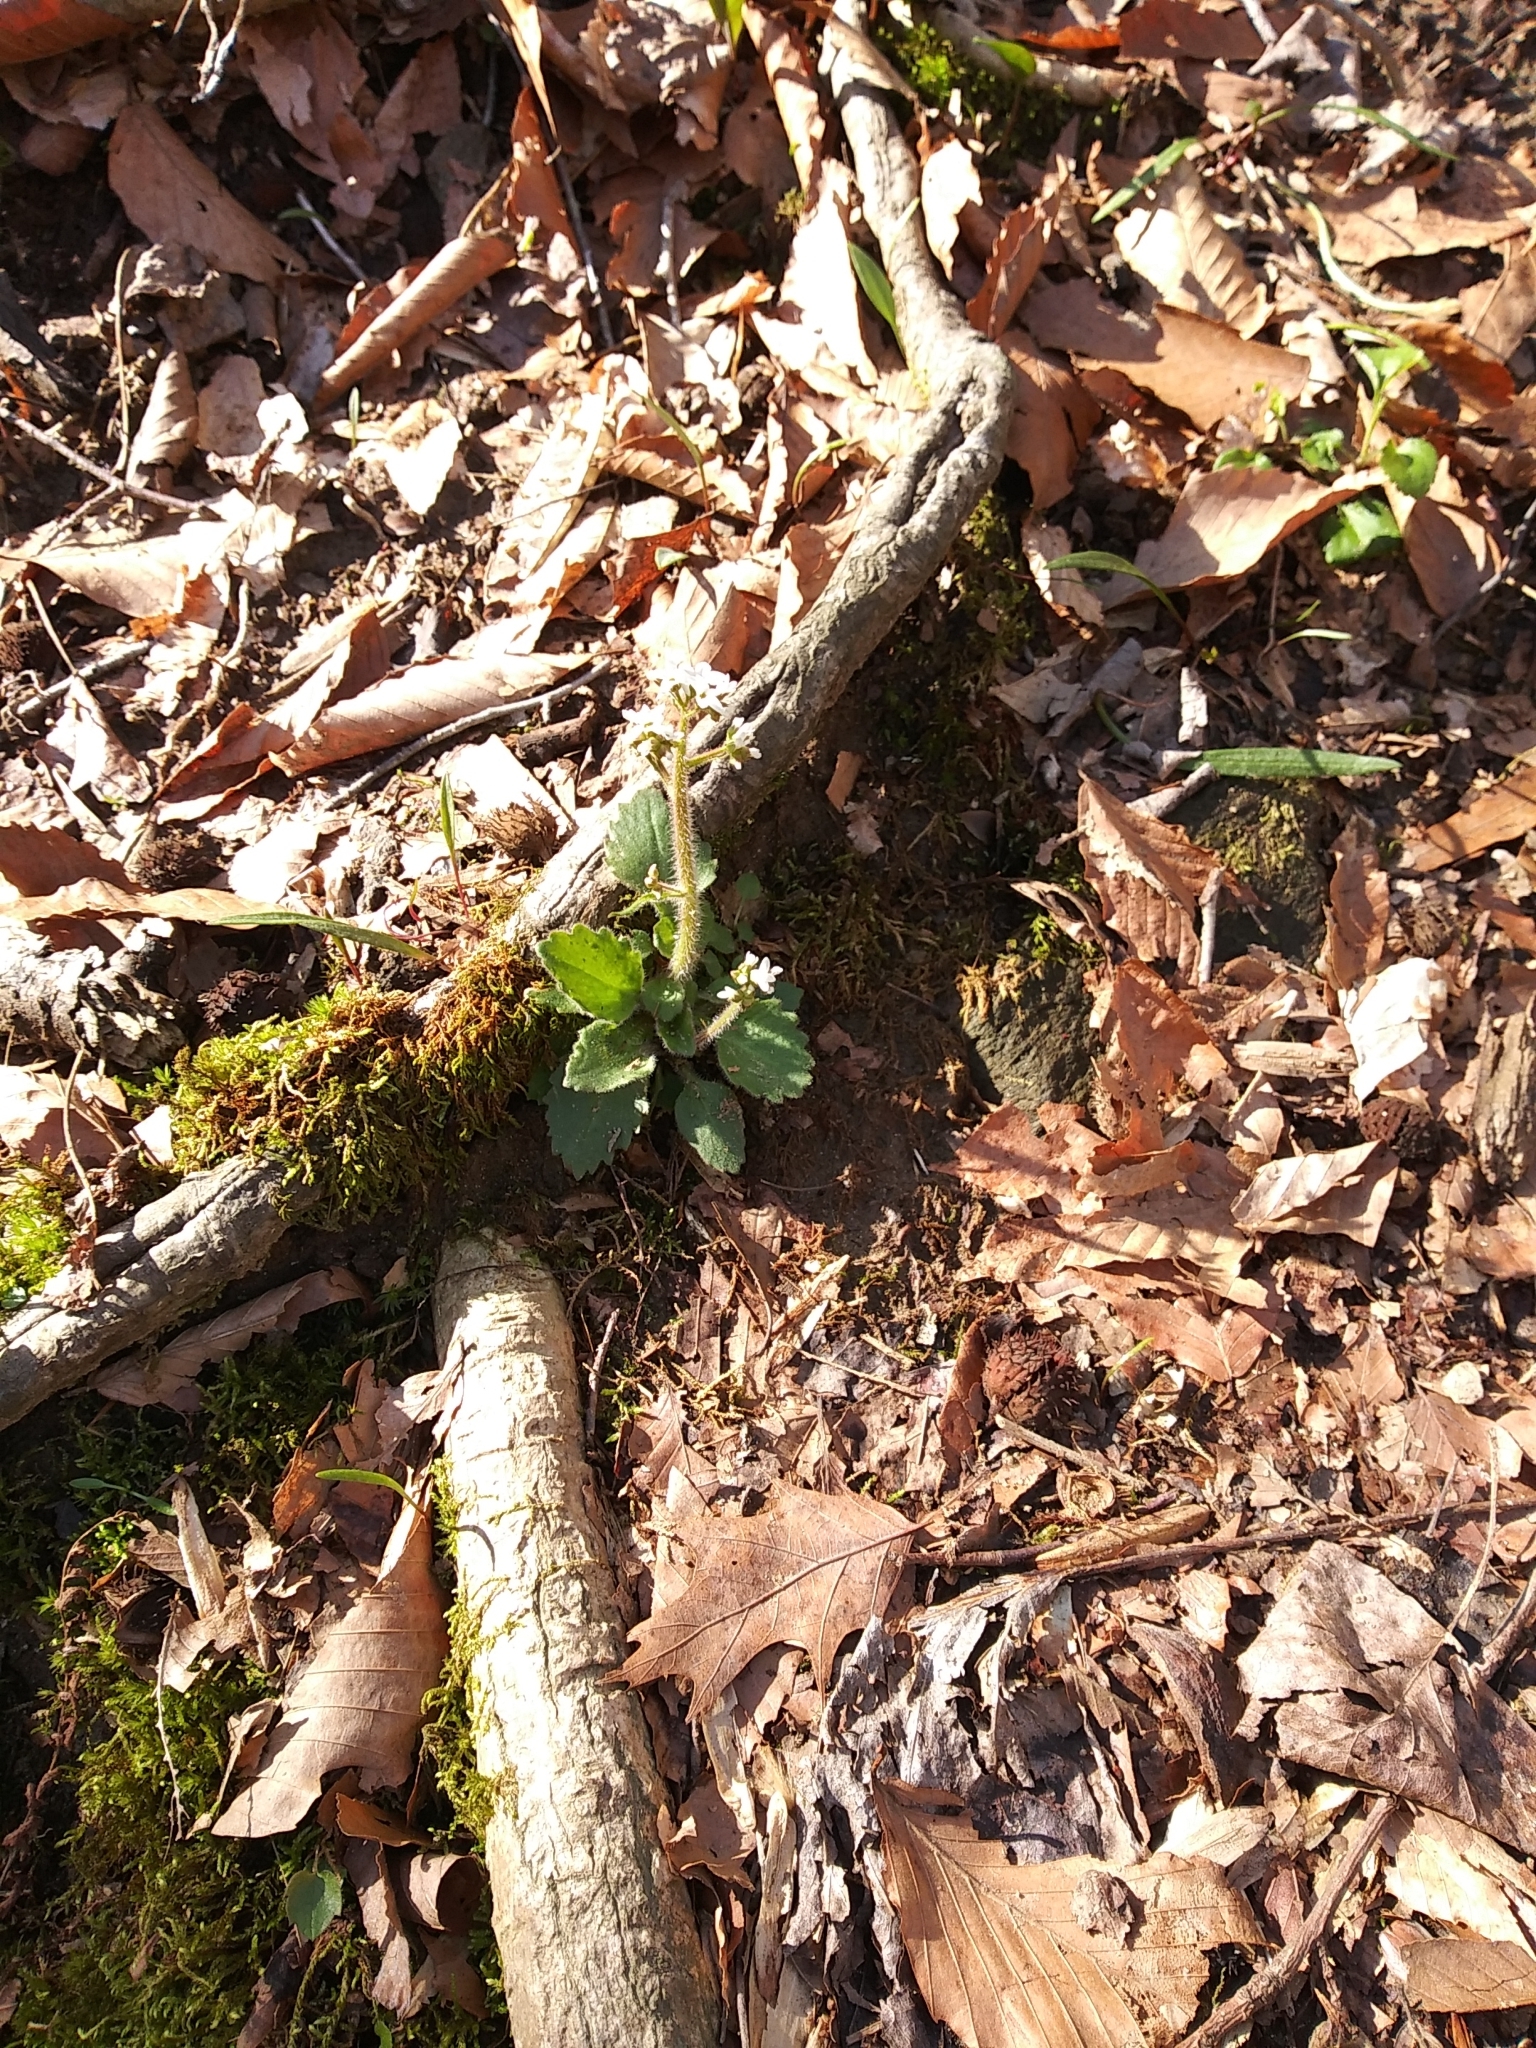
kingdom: Plantae
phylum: Tracheophyta
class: Magnoliopsida
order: Saxifragales
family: Saxifragaceae
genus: Micranthes
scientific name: Micranthes virginiensis
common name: Early saxifrage
